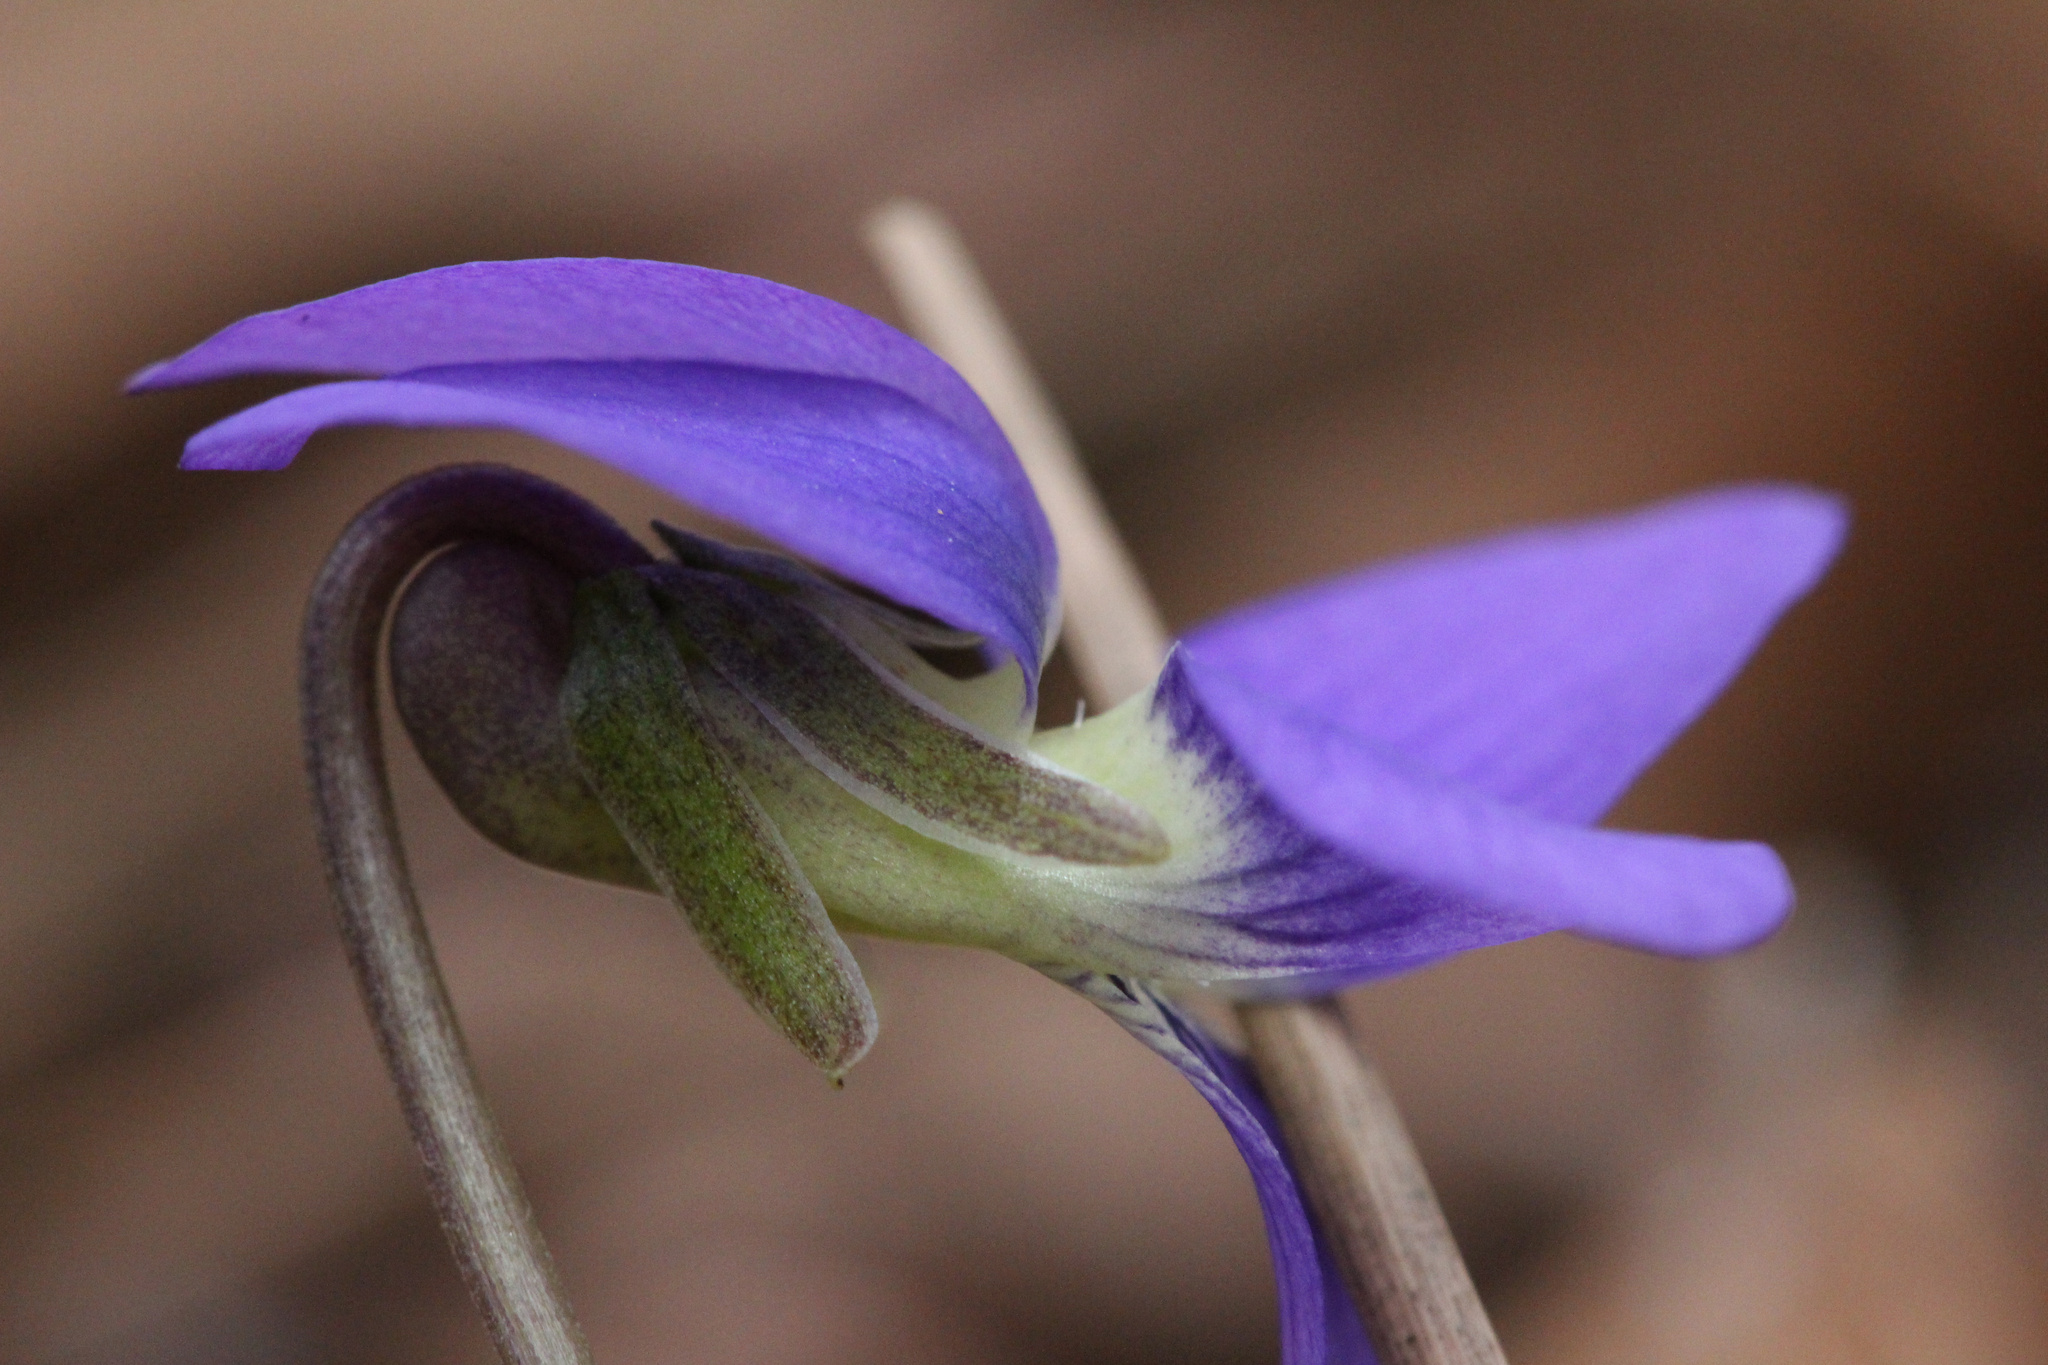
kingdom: Plantae
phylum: Tracheophyta
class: Magnoliopsida
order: Malpighiales
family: Violaceae
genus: Viola
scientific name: Viola sororia
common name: Dooryard violet
